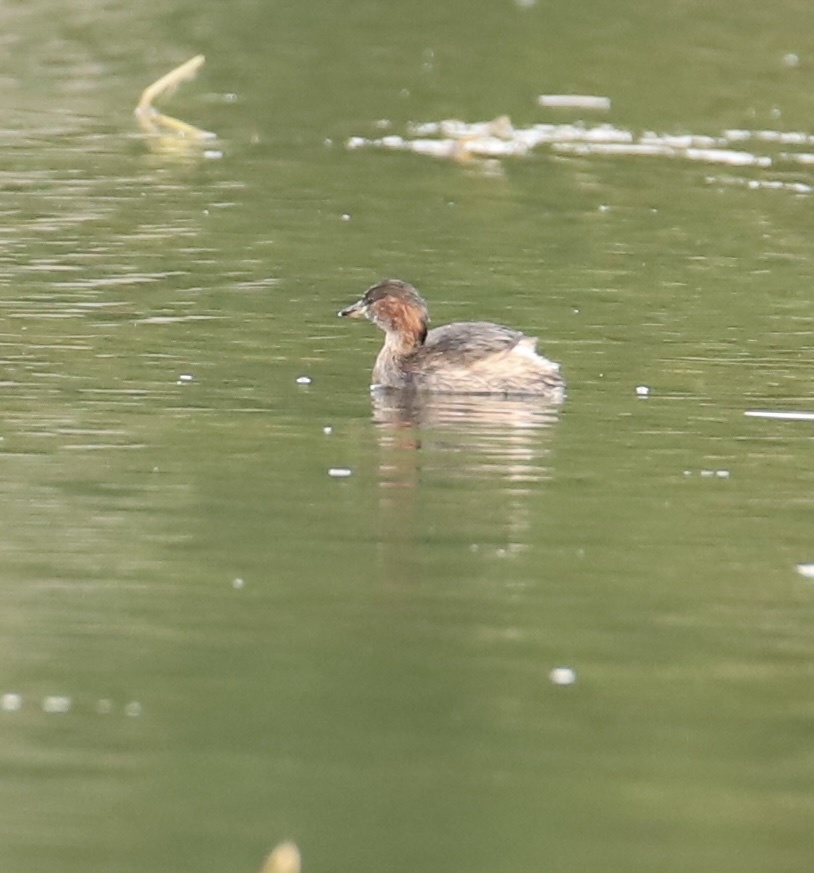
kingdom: Animalia
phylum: Chordata
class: Aves
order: Podicipediformes
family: Podicipedidae
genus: Tachybaptus
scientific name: Tachybaptus ruficollis
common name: Little grebe
